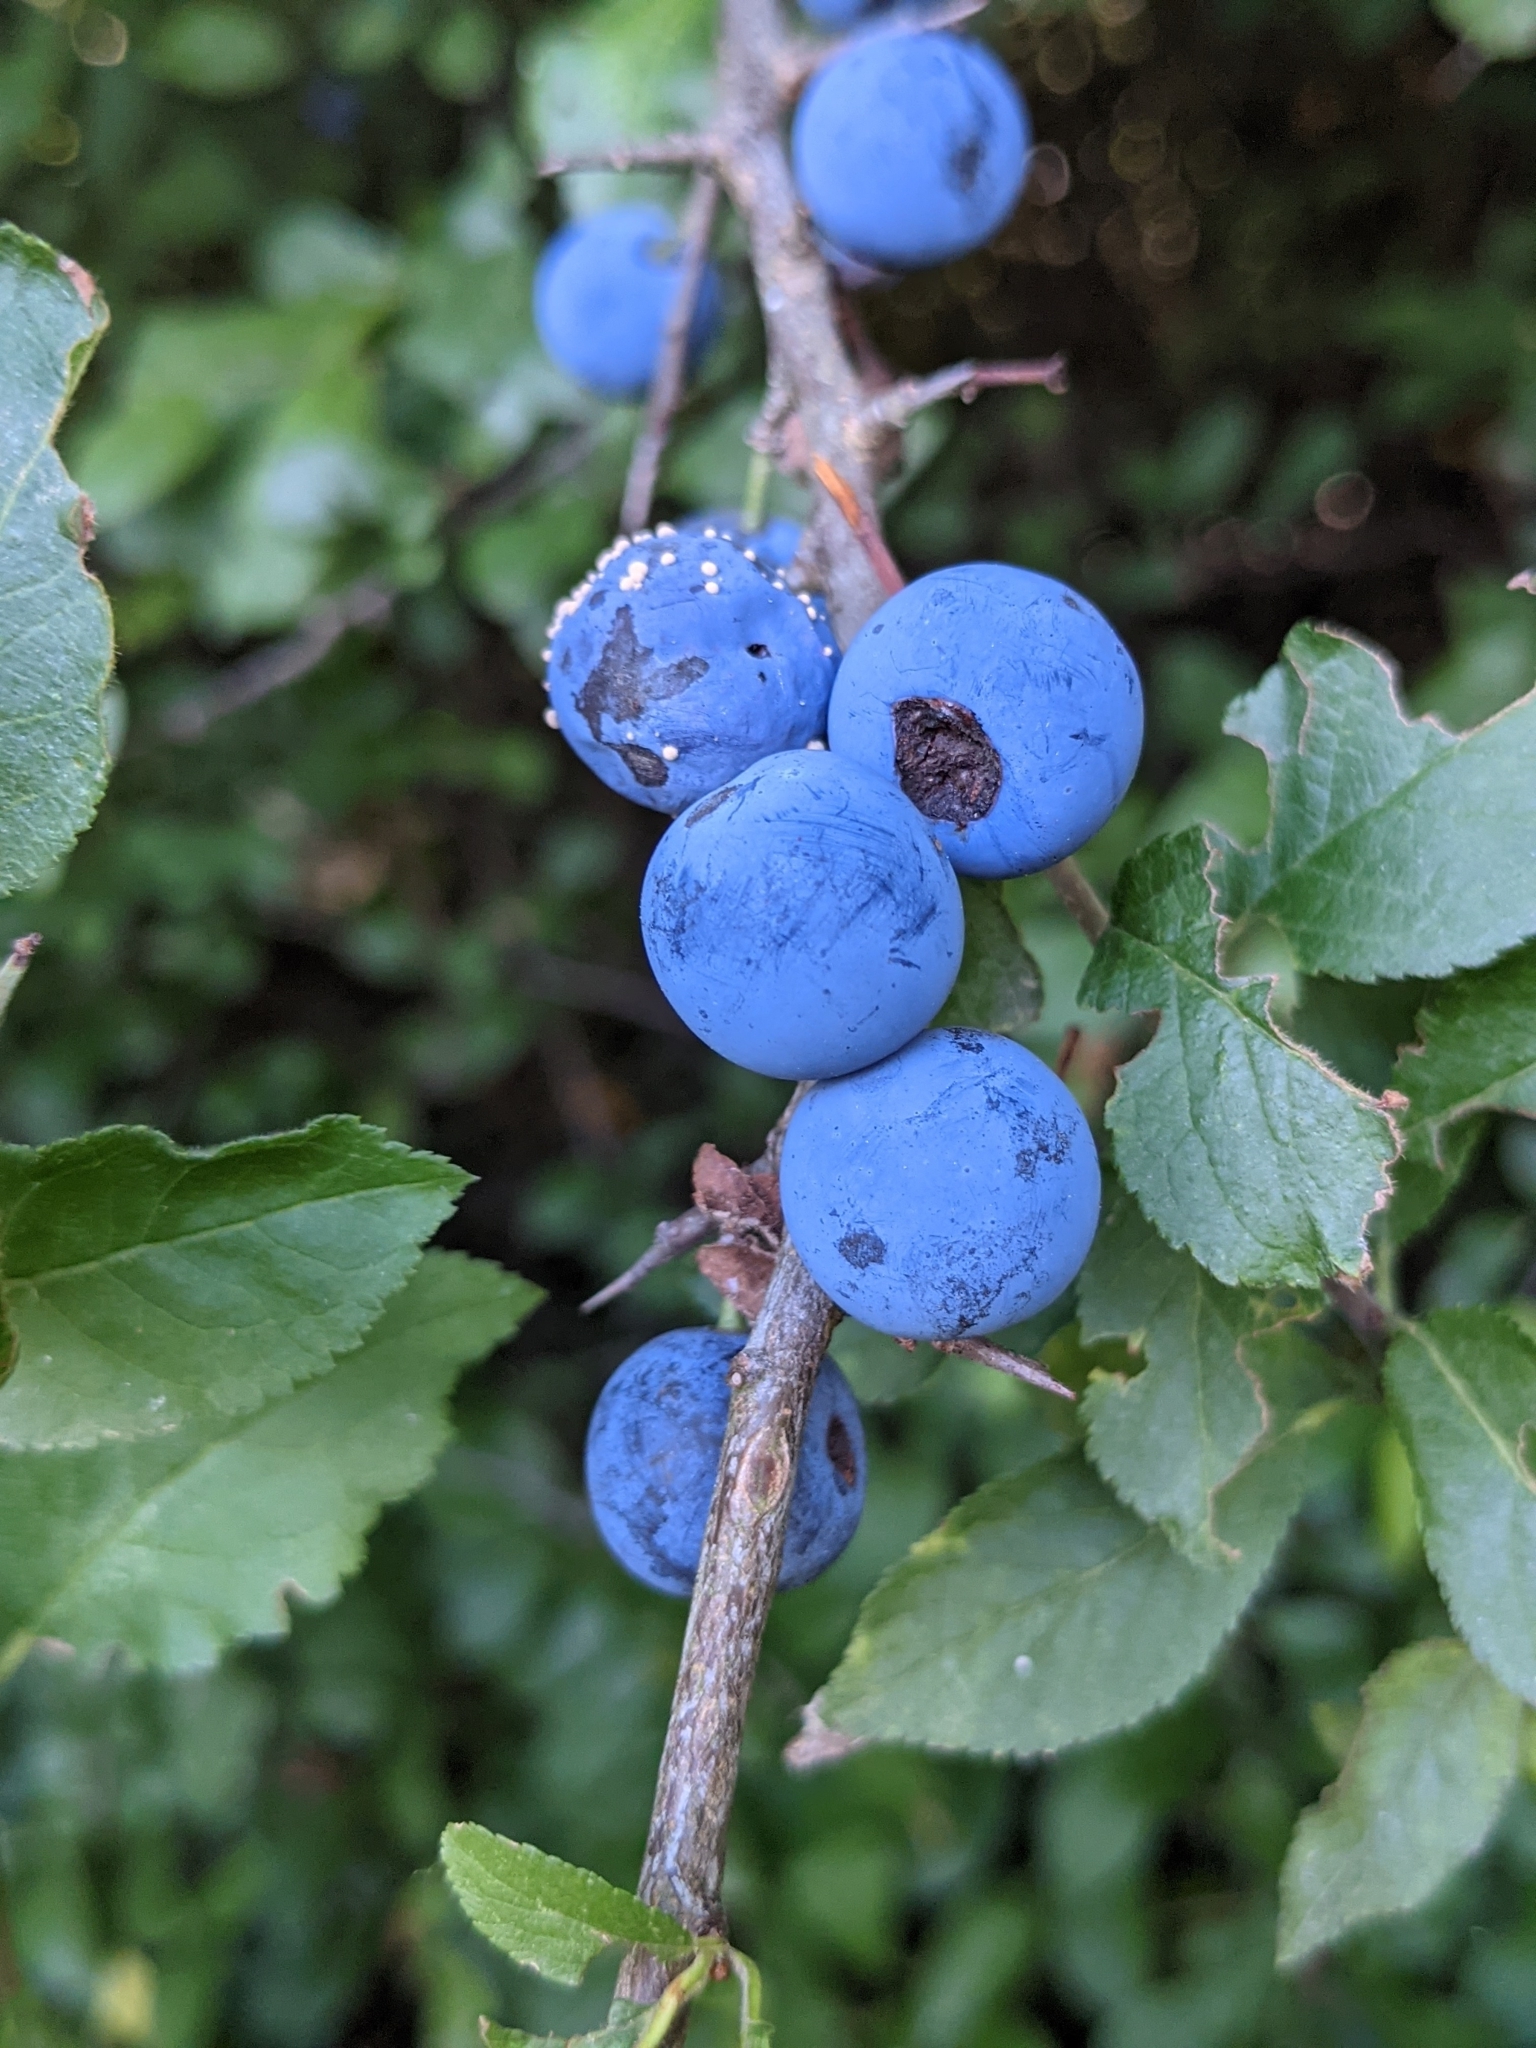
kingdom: Plantae
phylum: Tracheophyta
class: Magnoliopsida
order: Rosales
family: Rosaceae
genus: Prunus
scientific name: Prunus spinosa
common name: Blackthorn
